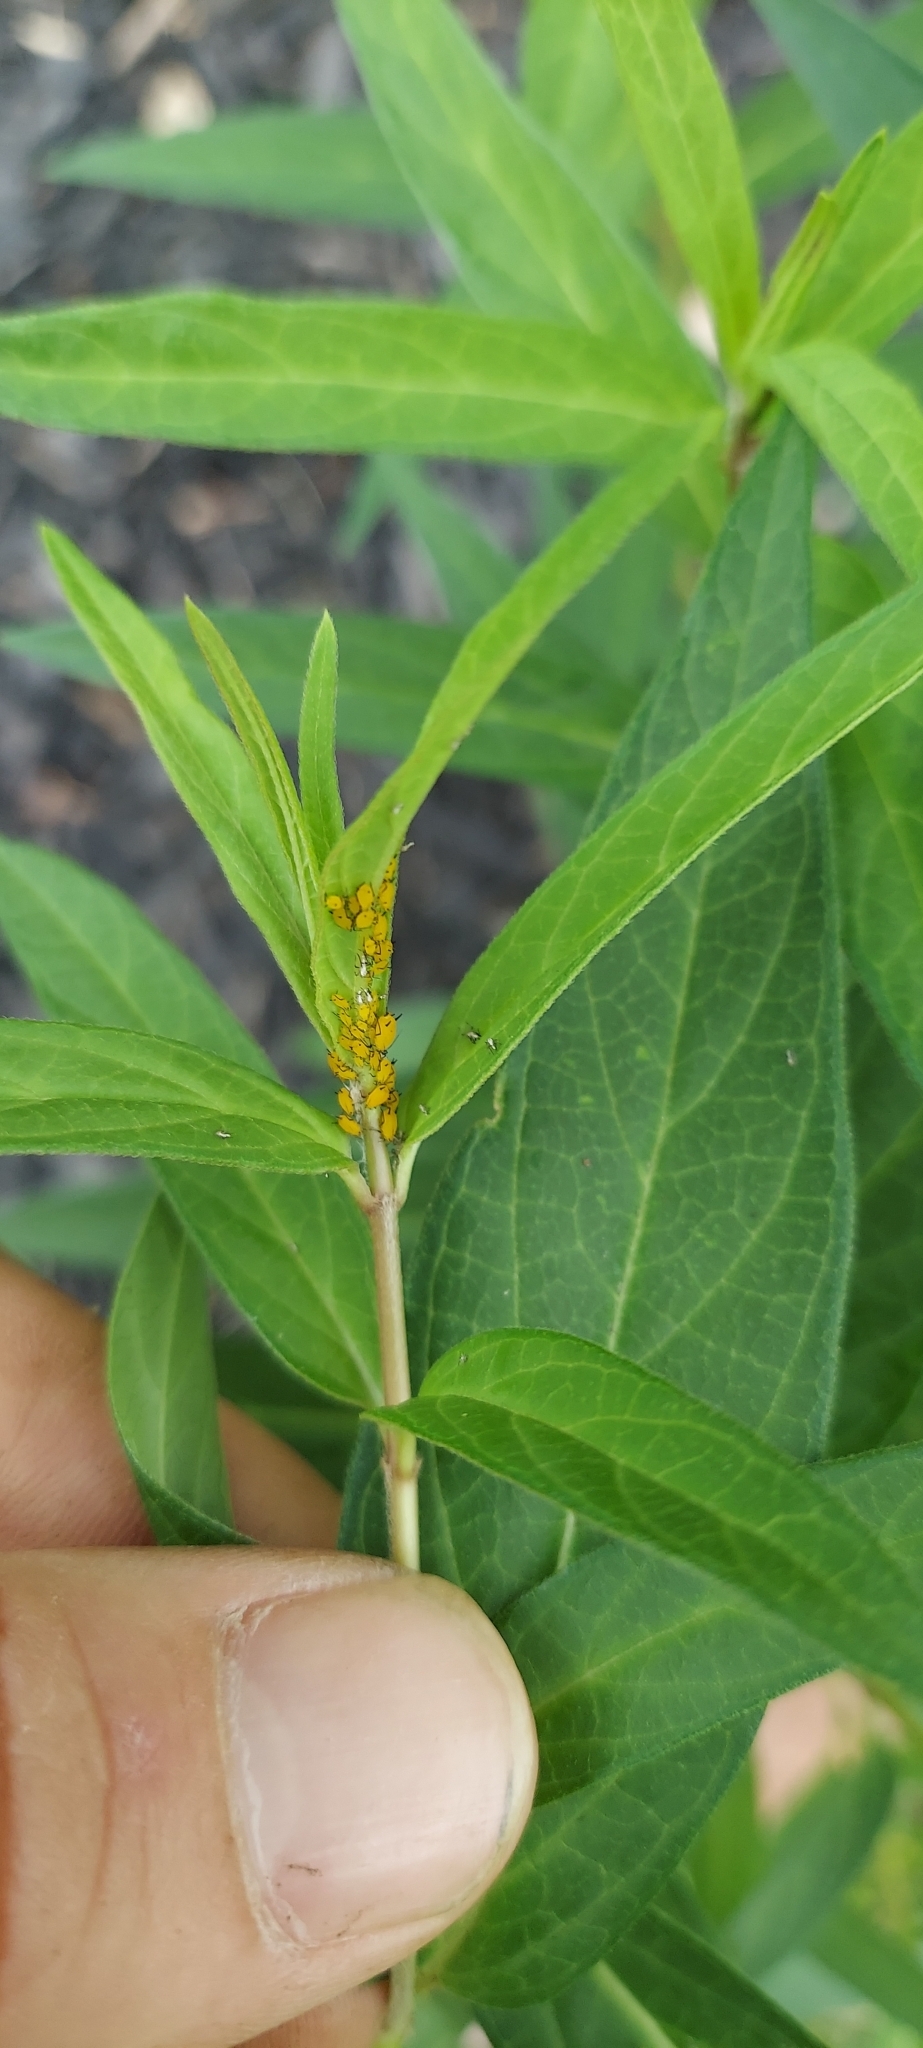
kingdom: Animalia
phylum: Arthropoda
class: Insecta
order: Hemiptera
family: Aphididae
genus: Aphis
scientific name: Aphis nerii
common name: Oleander aphid
